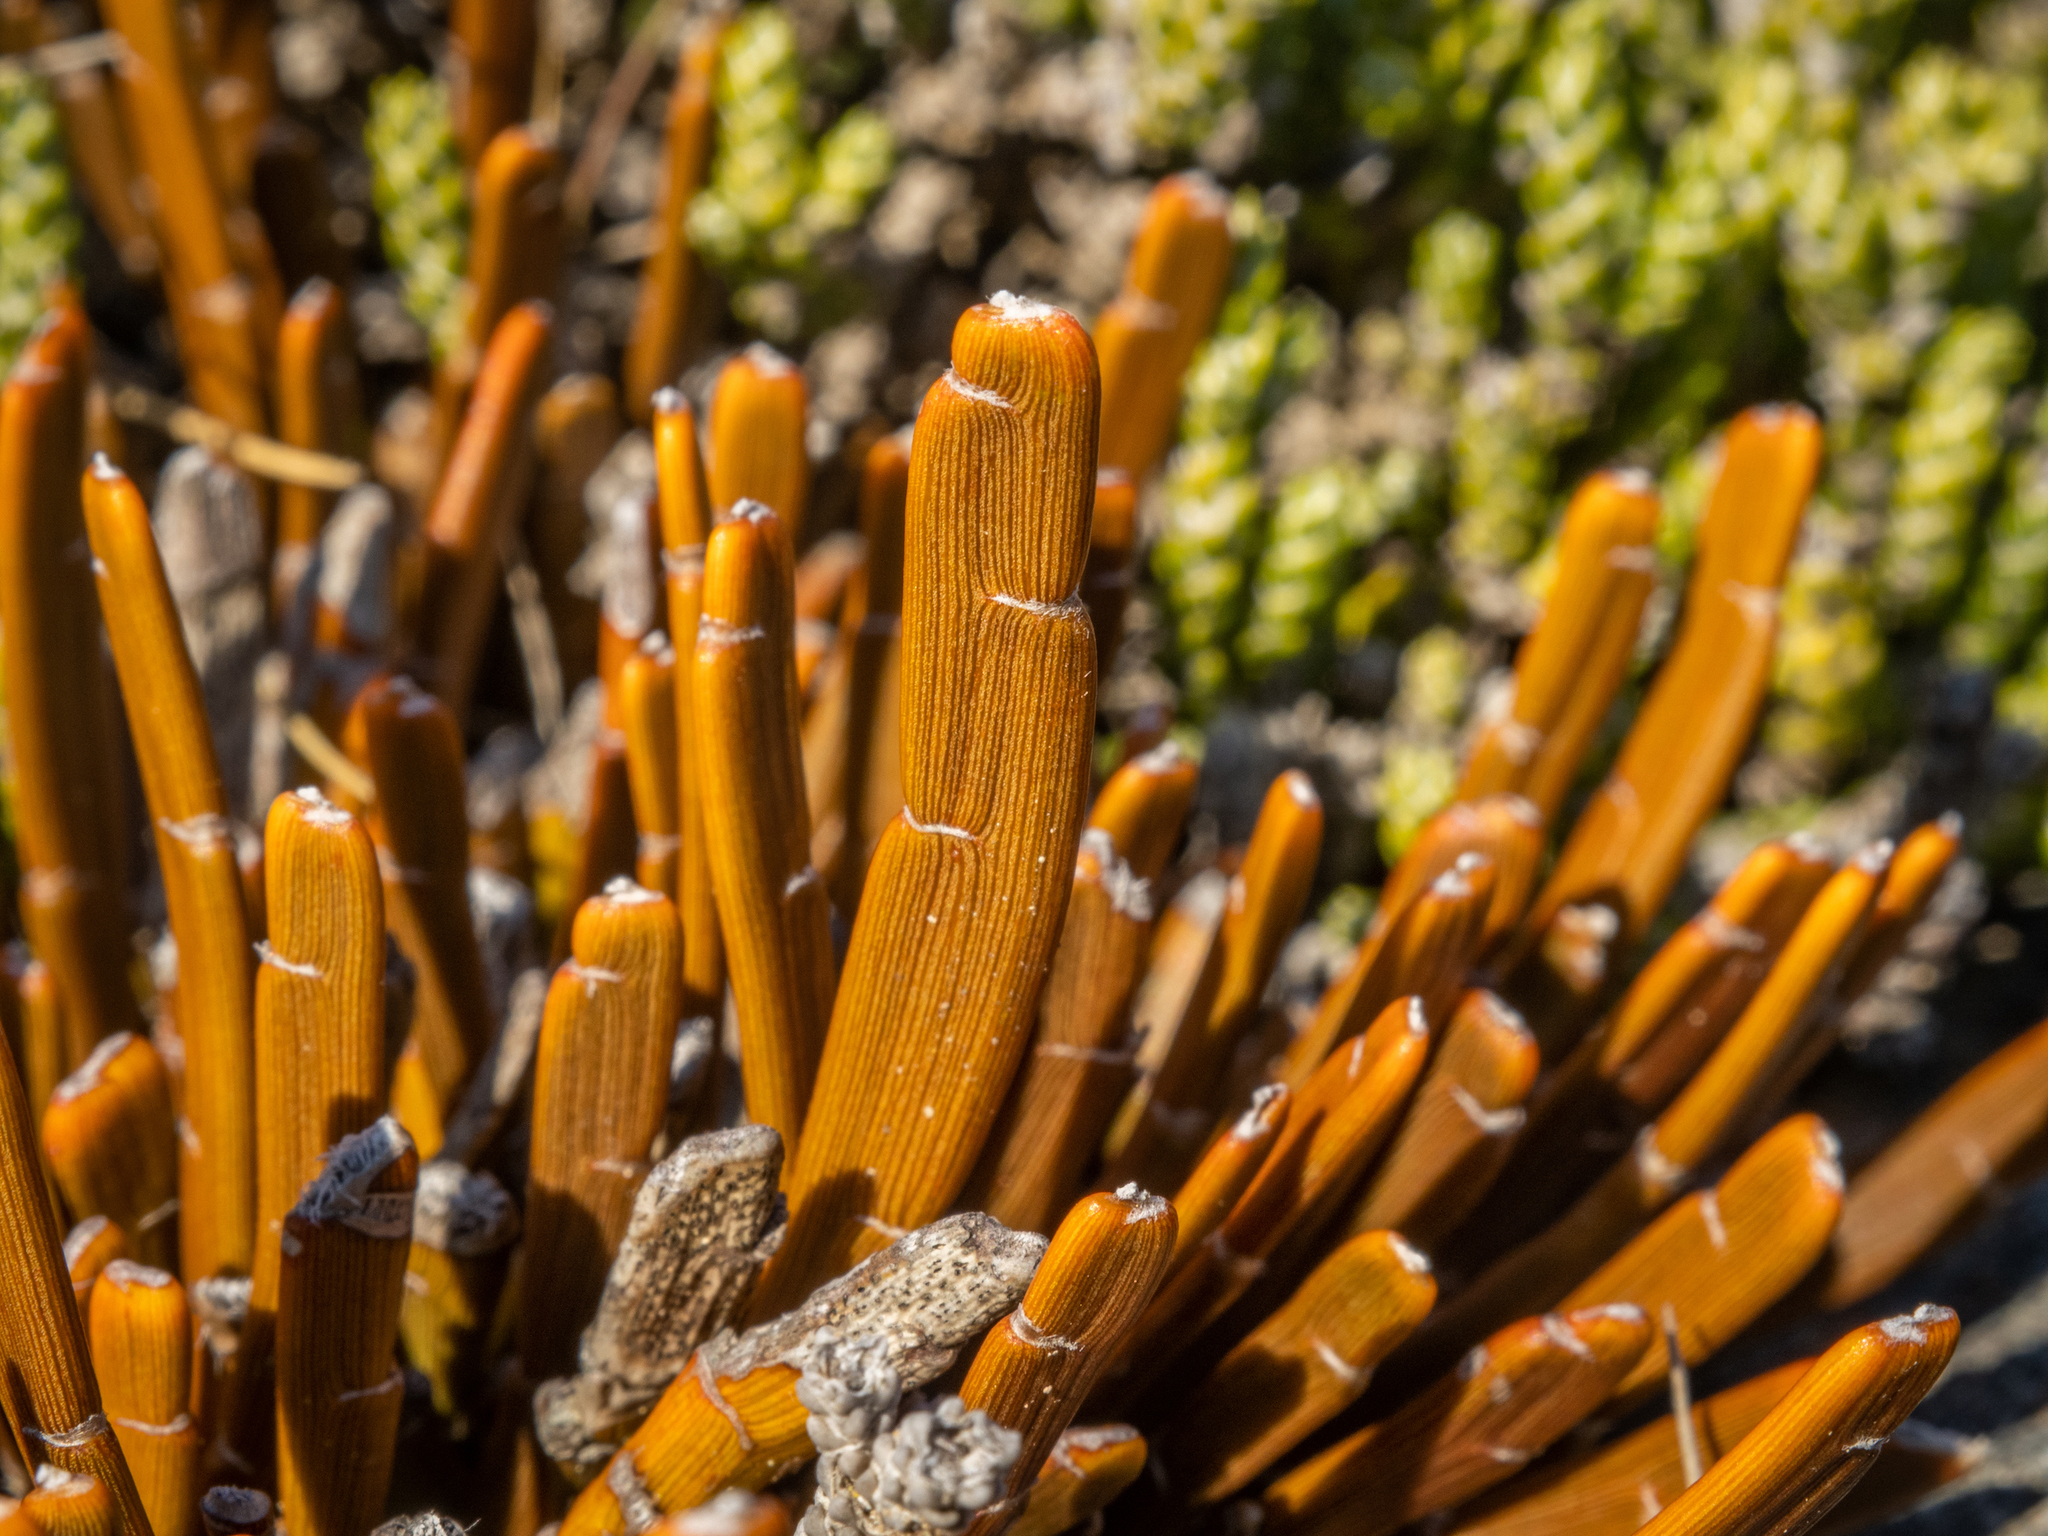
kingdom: Plantae
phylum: Tracheophyta
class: Magnoliopsida
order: Fabales
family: Fabaceae
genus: Carmichaelia
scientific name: Carmichaelia monroi
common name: Stout dwarf broom
